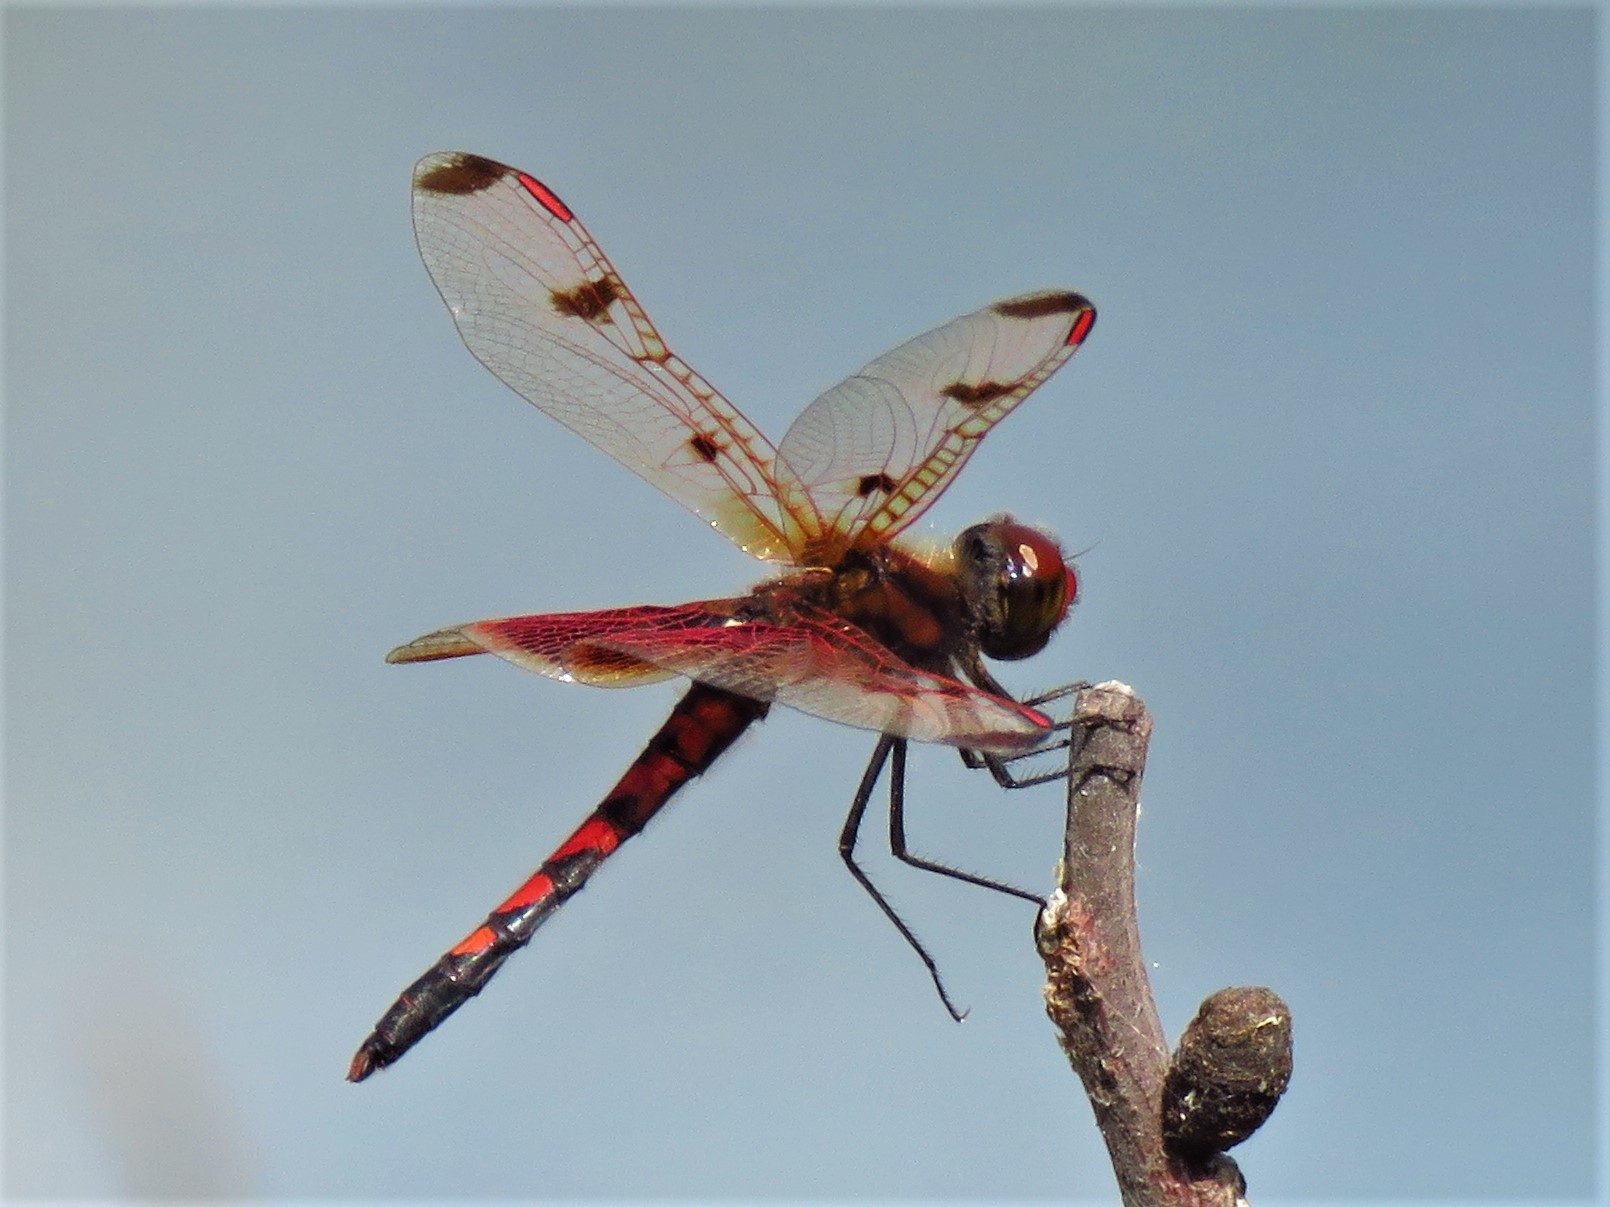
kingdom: Animalia
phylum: Arthropoda
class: Insecta
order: Odonata
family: Libellulidae
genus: Celithemis
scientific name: Celithemis elisa
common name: Calico pennant
